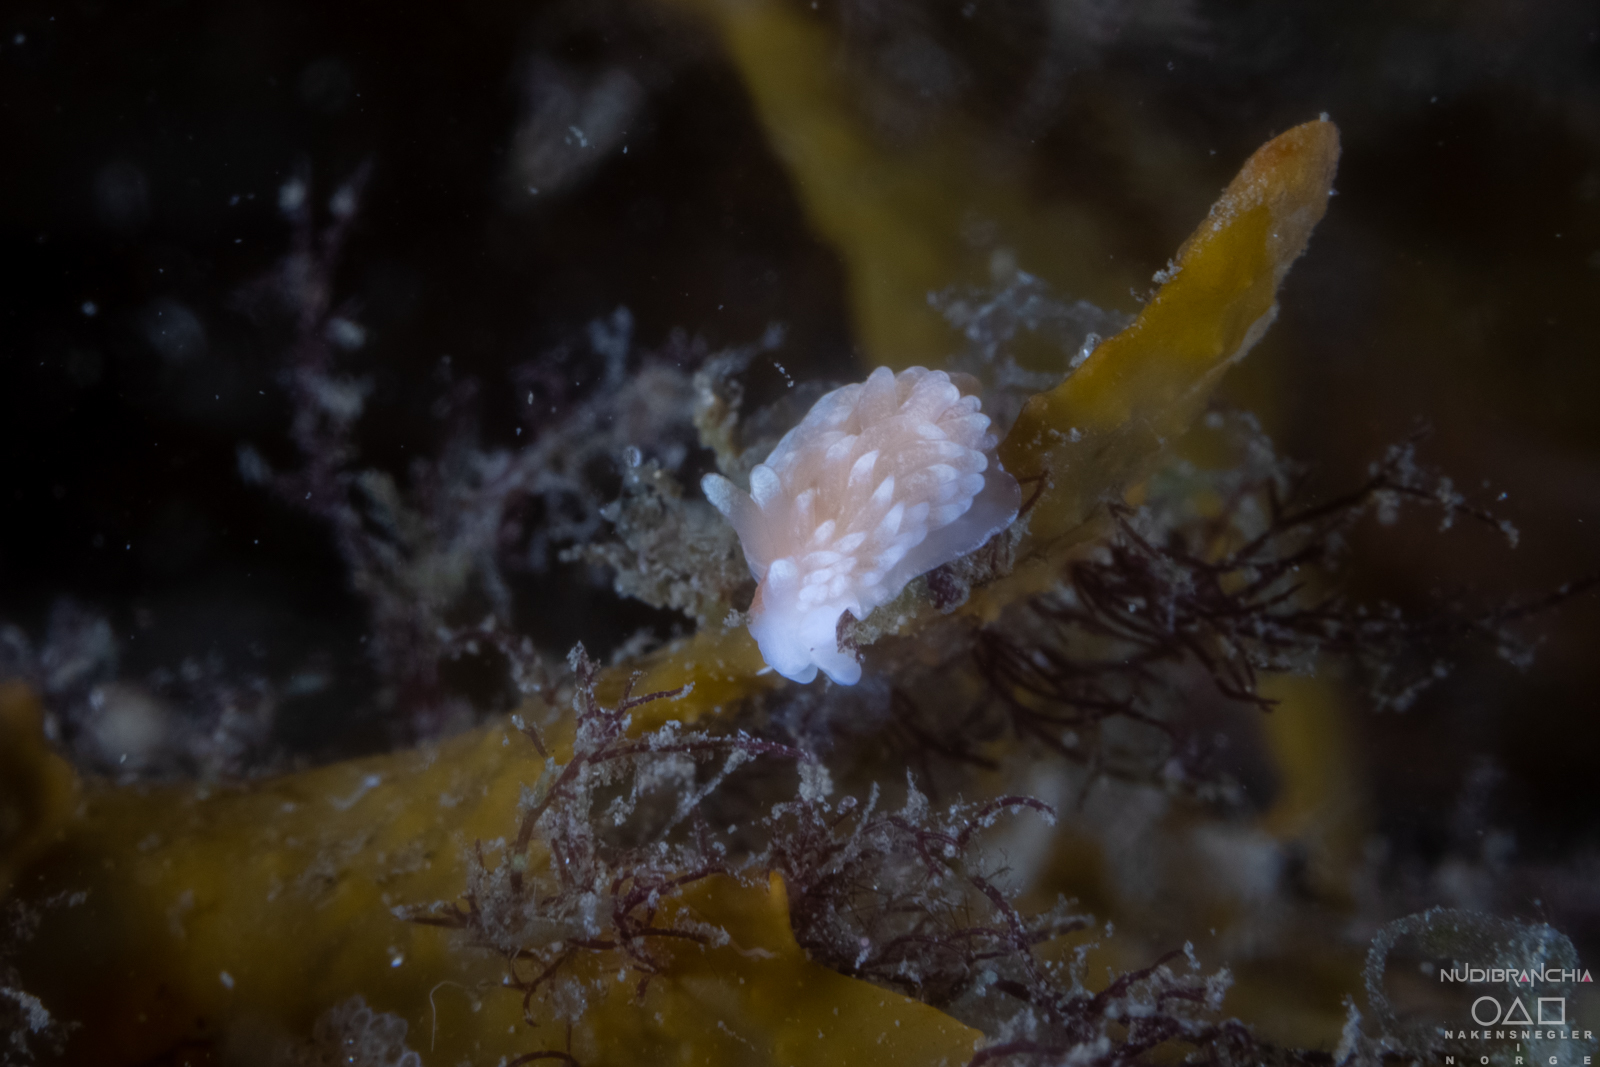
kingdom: Animalia
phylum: Mollusca
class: Gastropoda
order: Nudibranchia
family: Aeolidiidae
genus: Aeolidiella
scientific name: Aeolidiella glauca
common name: Orange-brown aeolid
